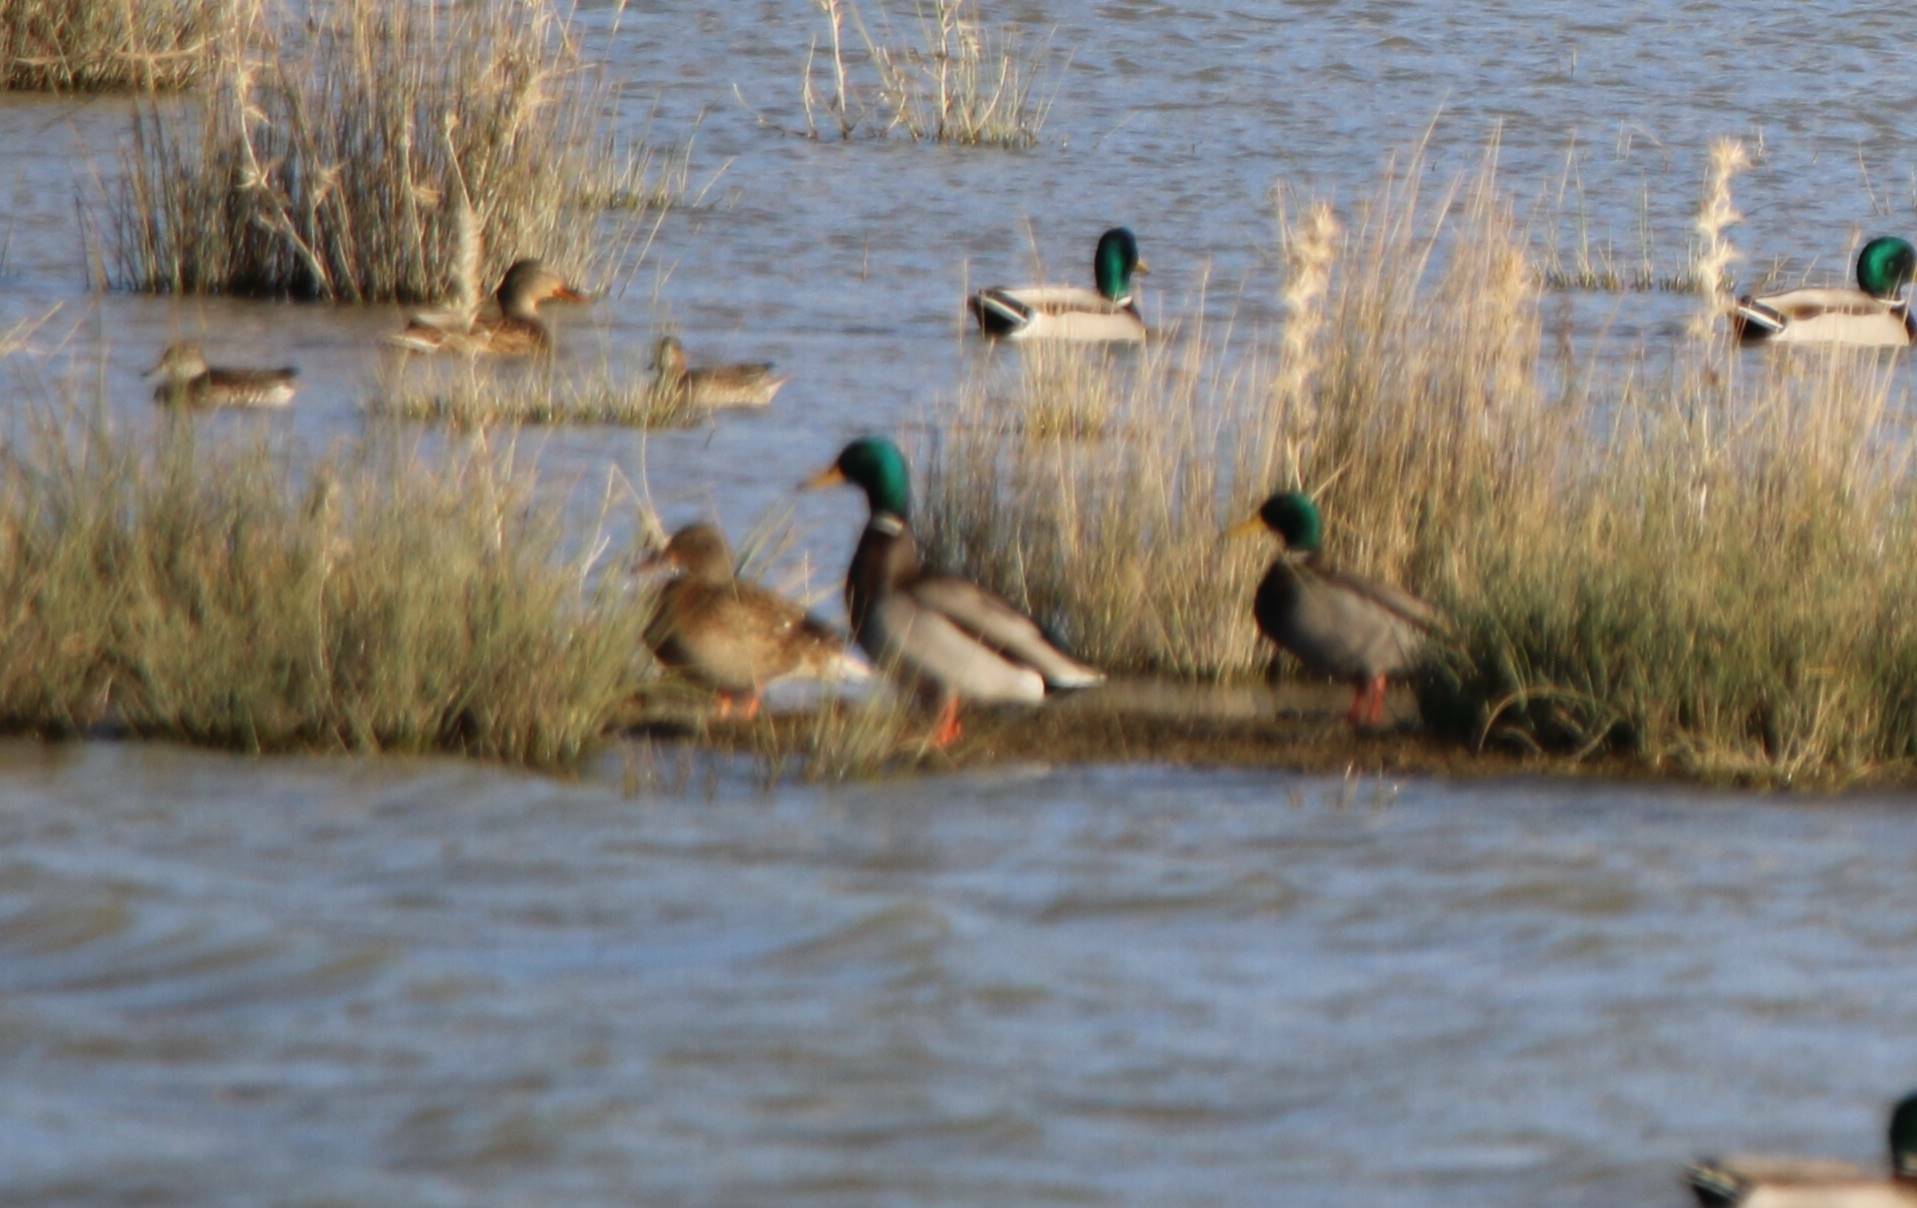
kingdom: Animalia
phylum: Chordata
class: Aves
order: Anseriformes
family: Anatidae
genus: Anas
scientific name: Anas platyrhynchos
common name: Mallard
